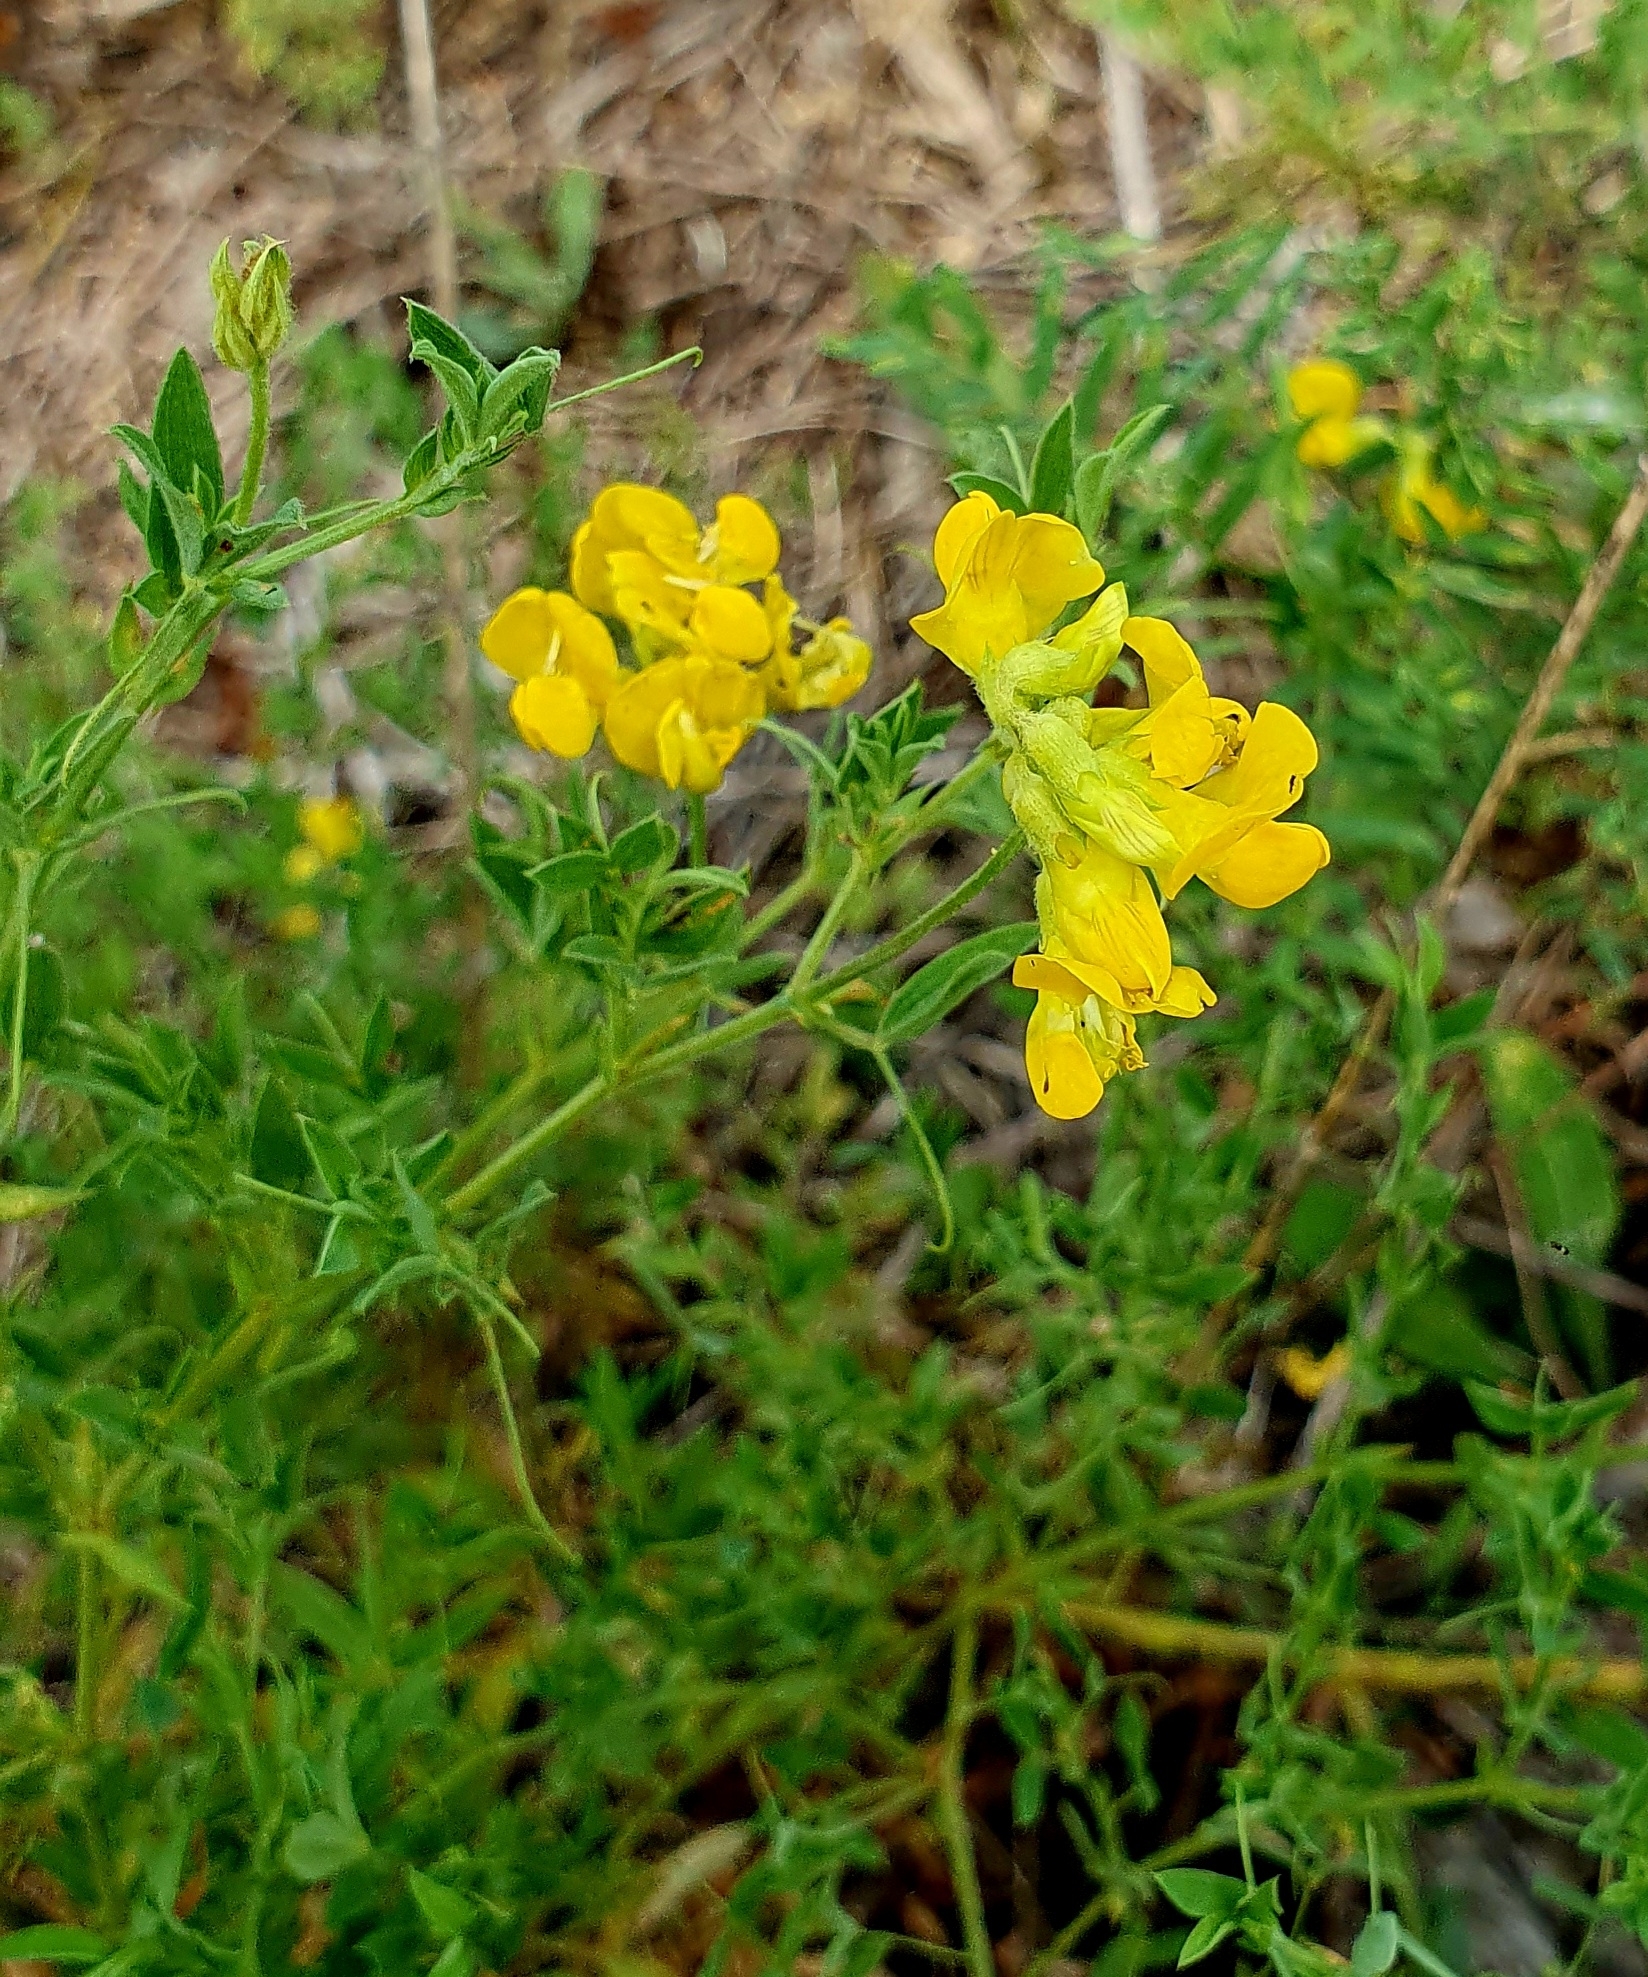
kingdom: Plantae
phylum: Tracheophyta
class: Magnoliopsida
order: Fabales
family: Fabaceae
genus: Lathyrus
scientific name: Lathyrus pratensis
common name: Meadow vetchling
